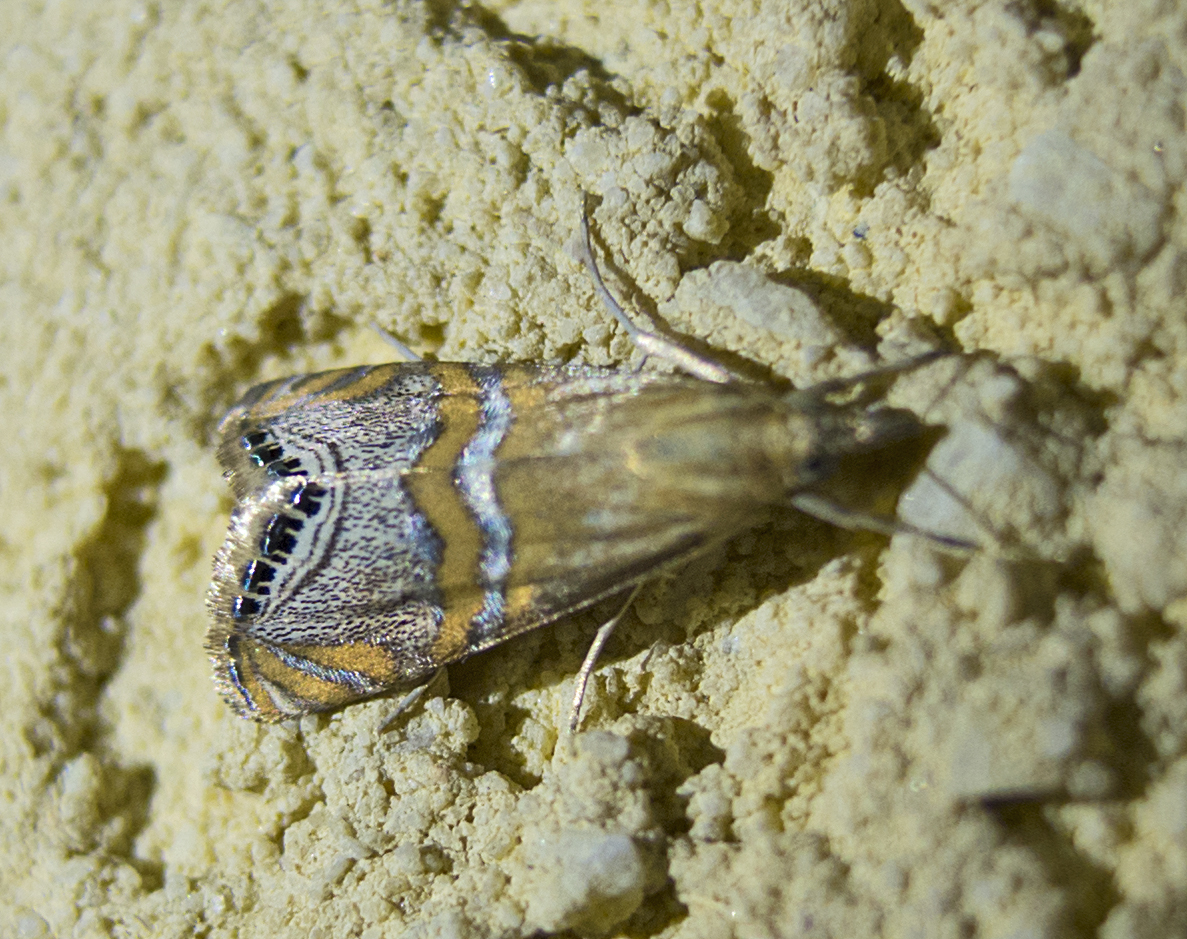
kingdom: Animalia
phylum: Arthropoda
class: Insecta
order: Lepidoptera
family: Crambidae
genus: Euchromius
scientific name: Euchromius bella
